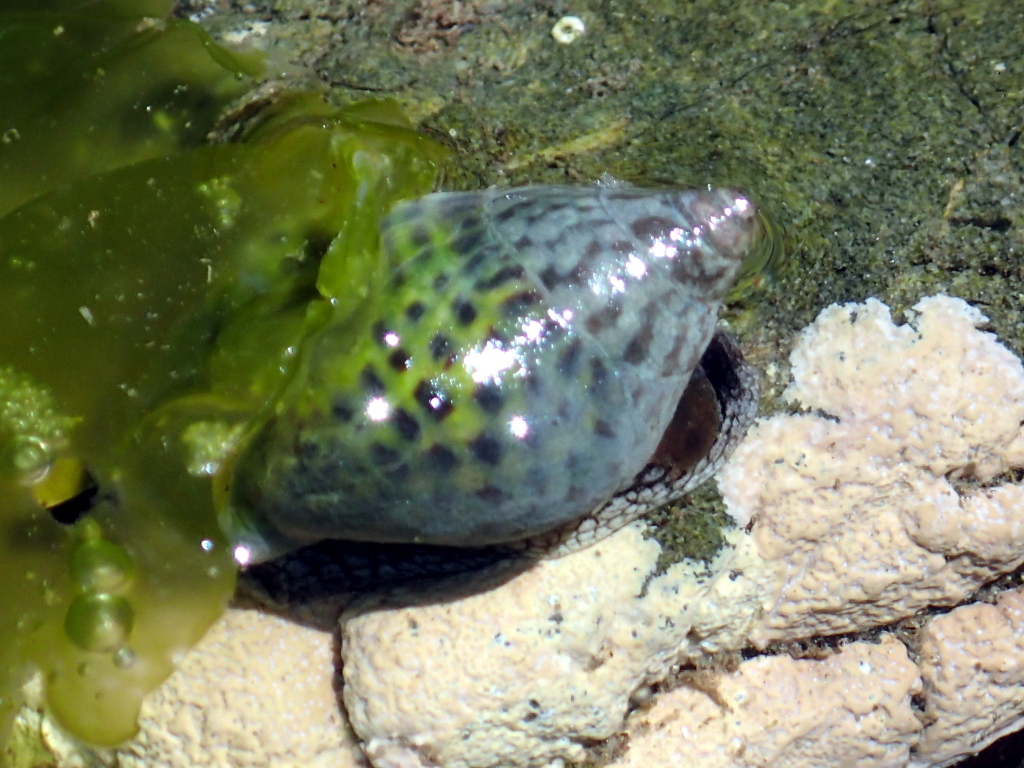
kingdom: Animalia
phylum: Mollusca
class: Gastropoda
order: Neogastropoda
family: Cominellidae
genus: Cominella
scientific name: Cominella maculosa
